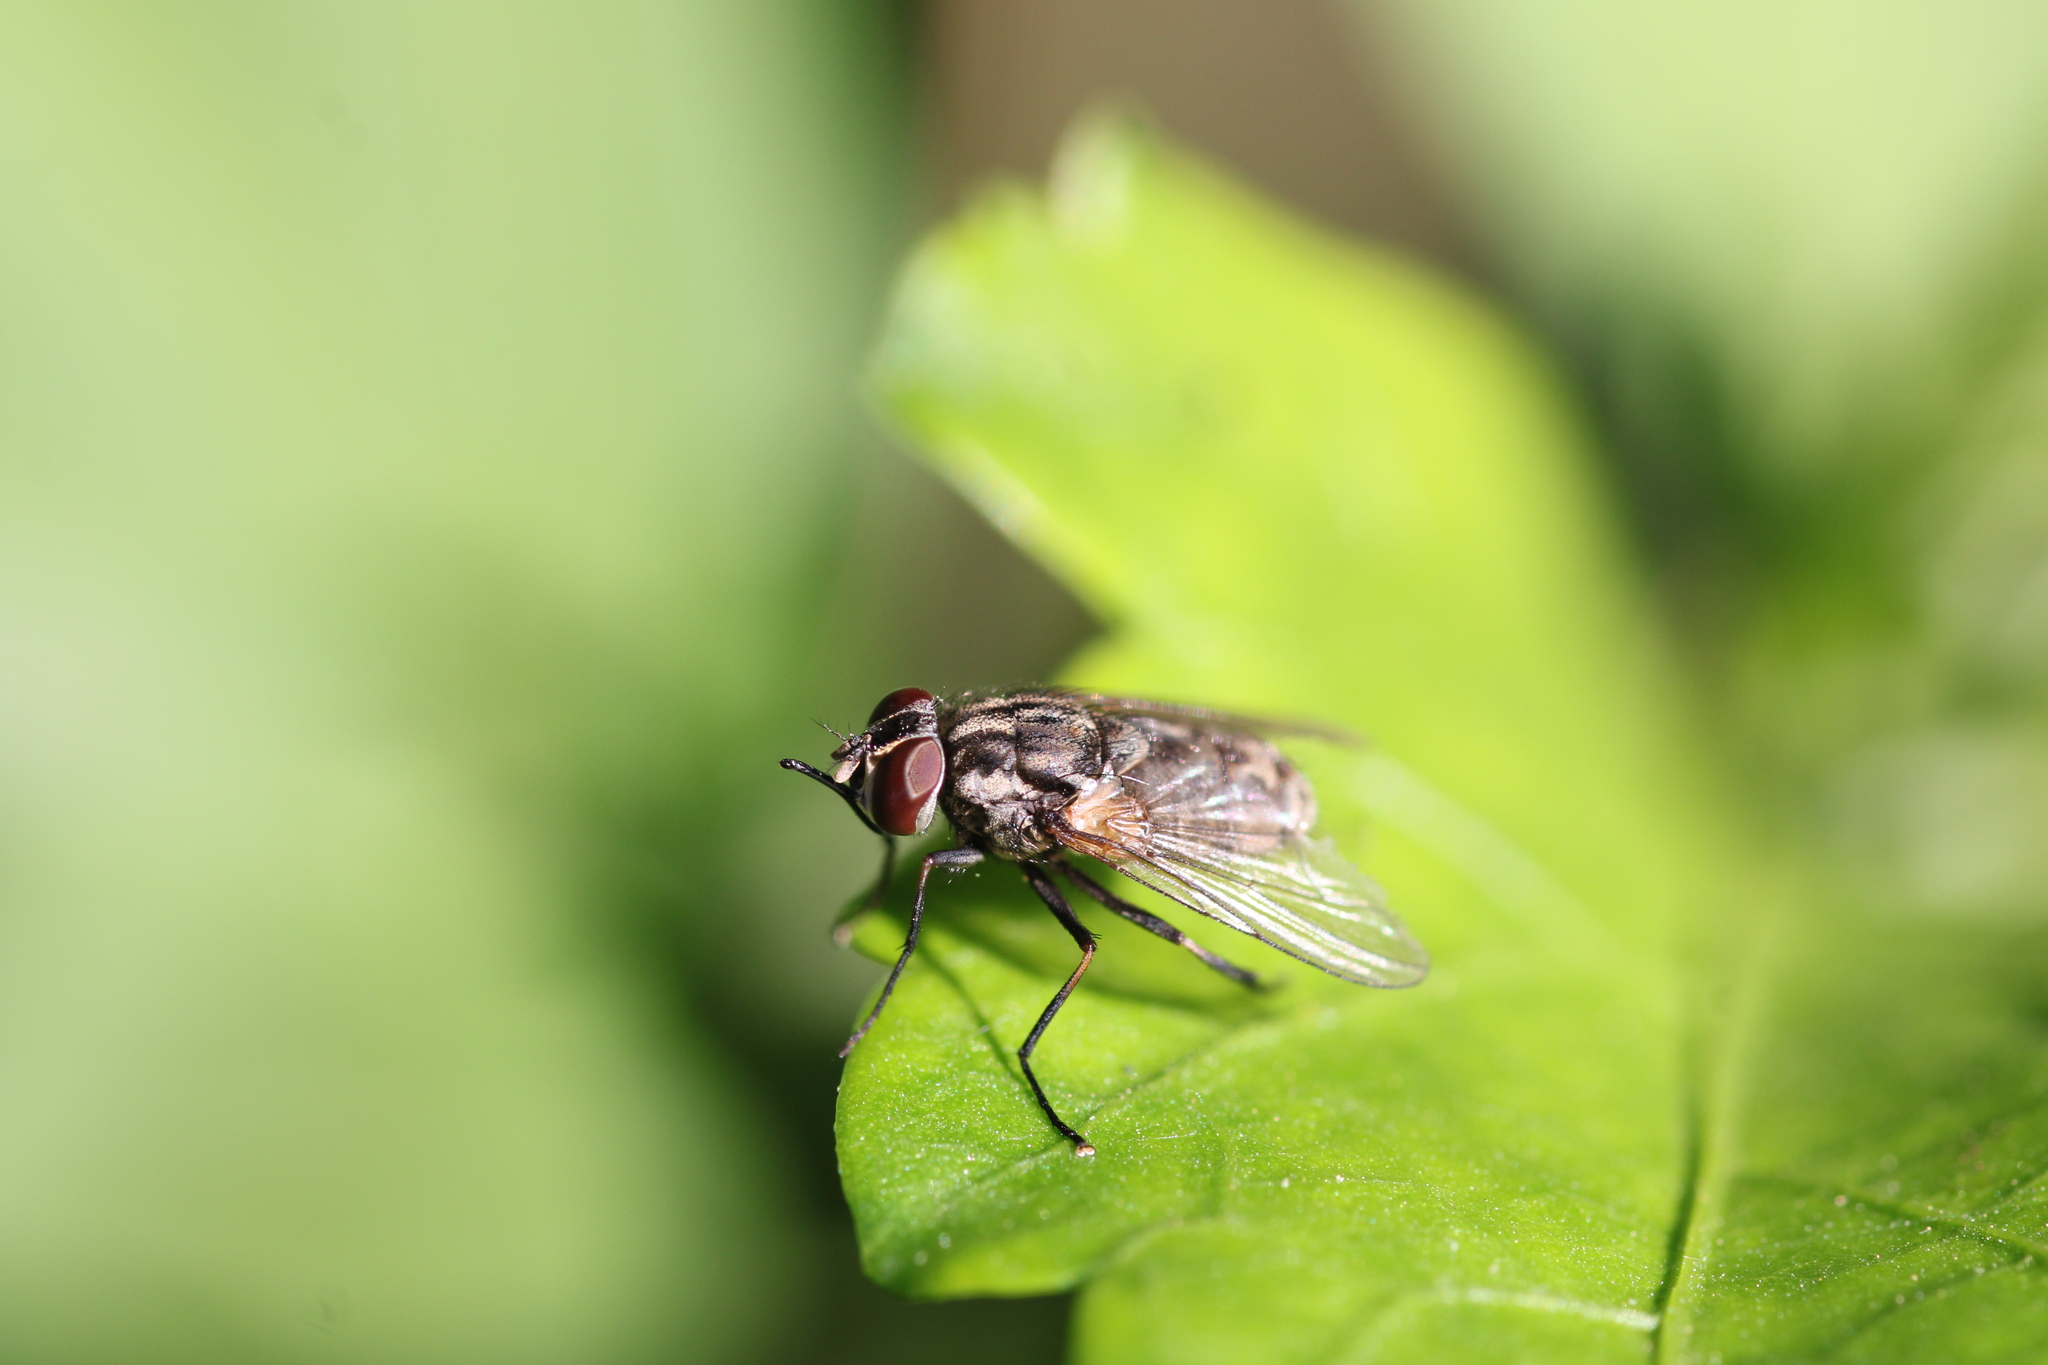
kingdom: Animalia
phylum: Arthropoda
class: Insecta
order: Diptera
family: Muscidae
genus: Stomoxys
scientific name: Stomoxys calcitrans
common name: Stable fly
